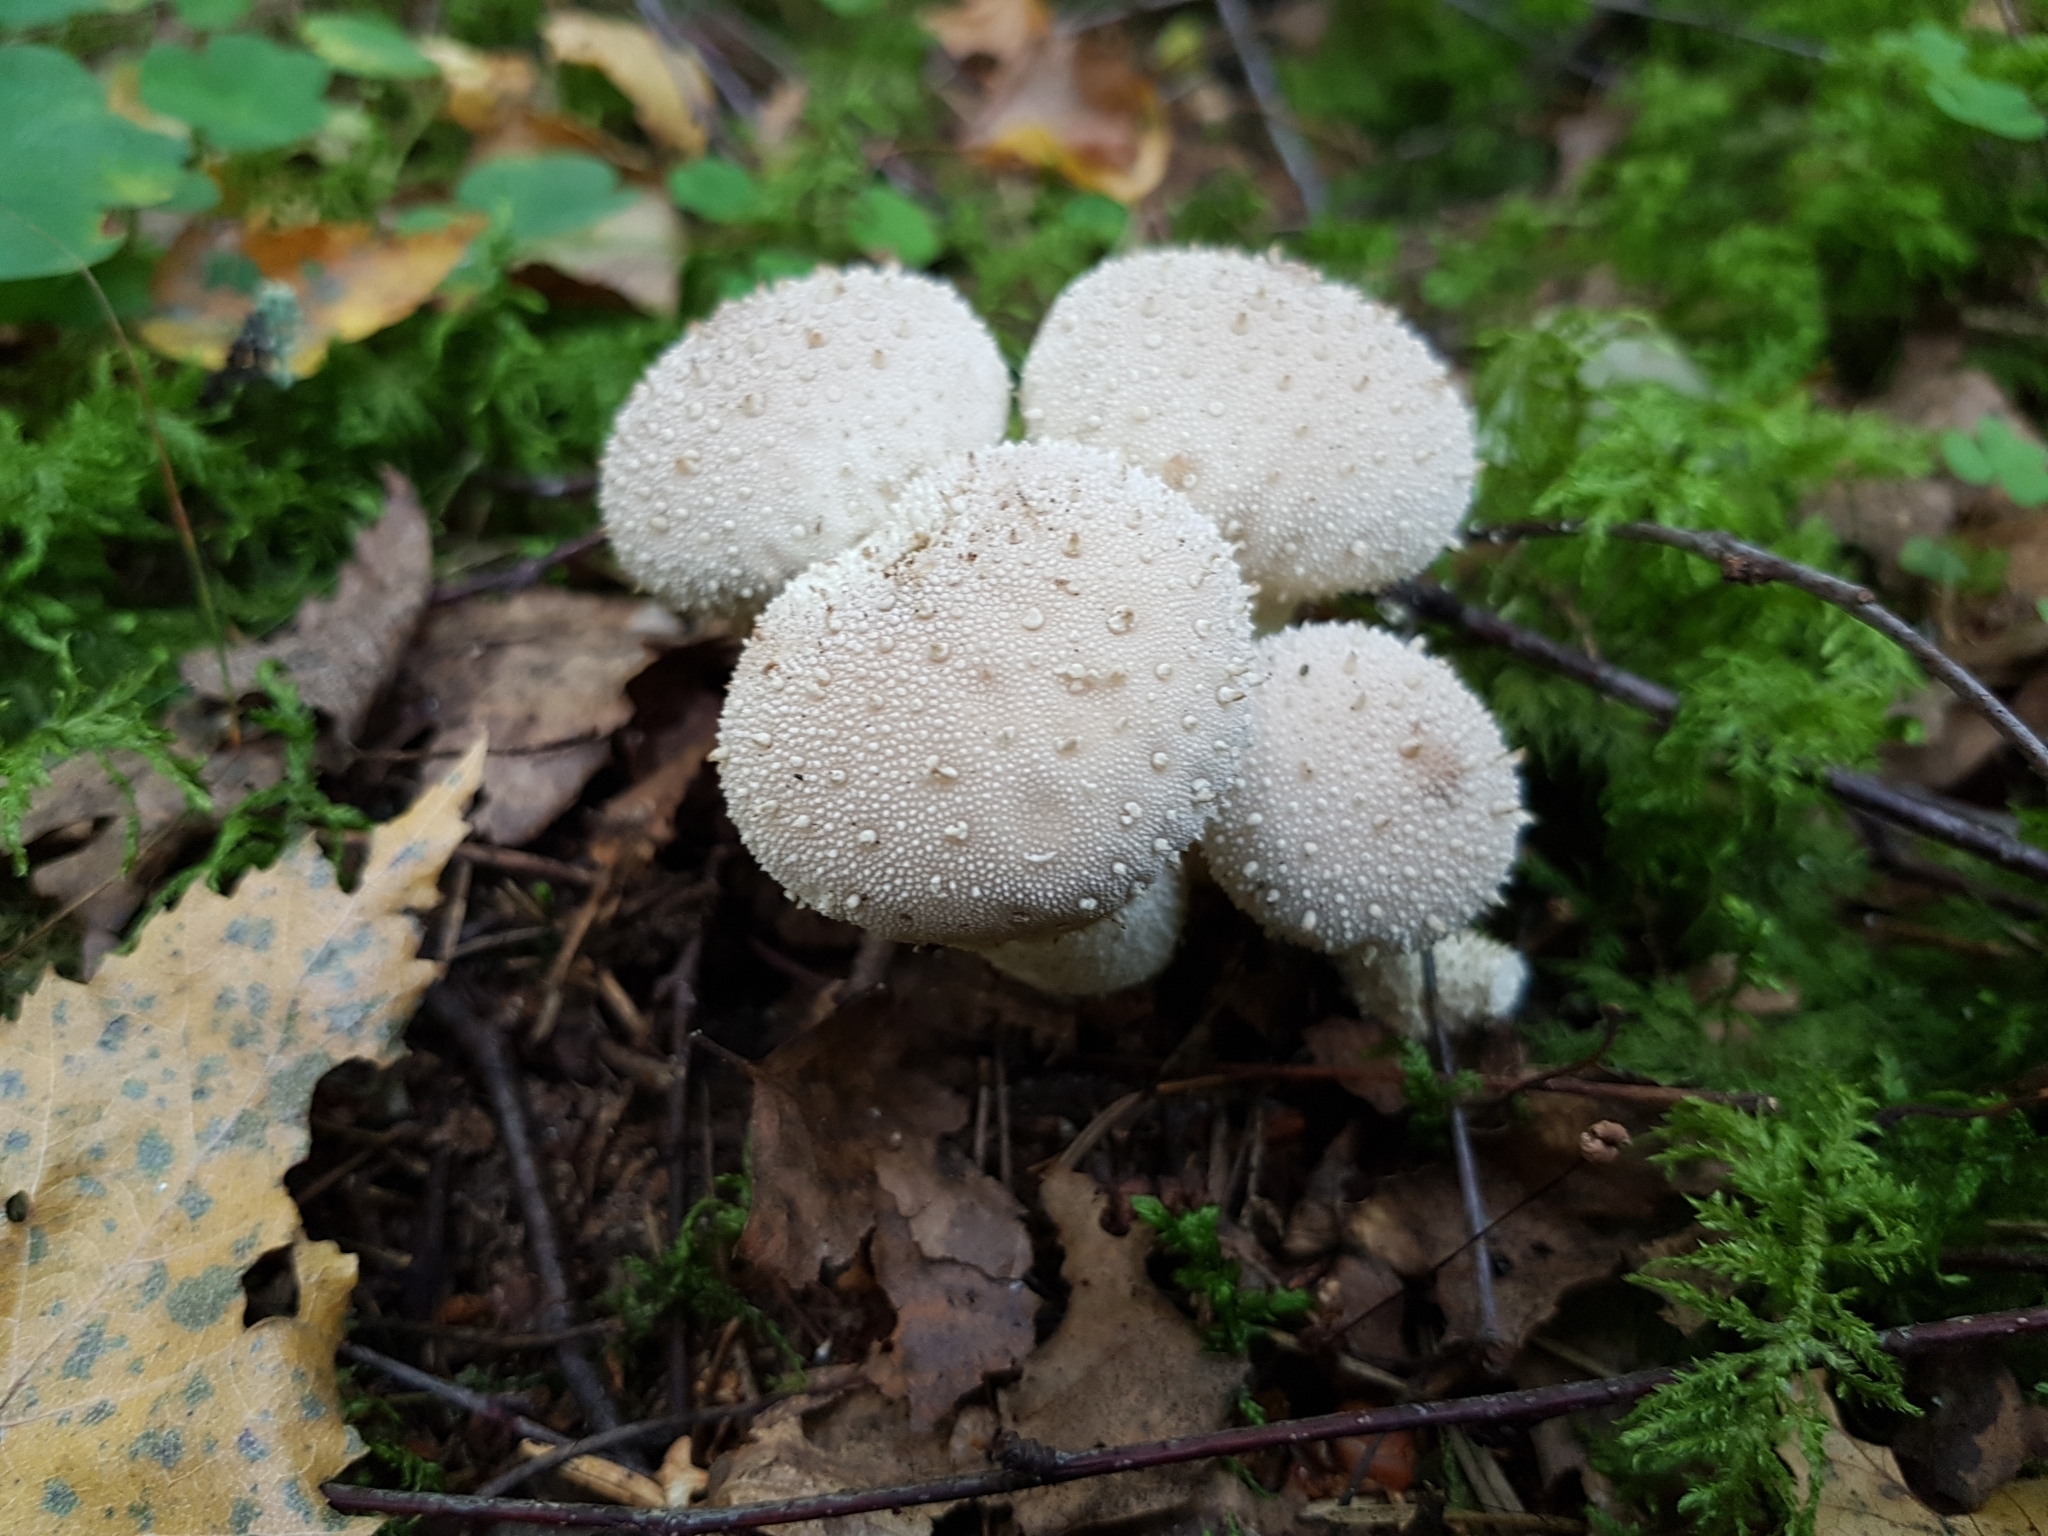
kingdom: Fungi
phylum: Basidiomycota
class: Agaricomycetes
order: Agaricales
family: Lycoperdaceae
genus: Lycoperdon
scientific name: Lycoperdon perlatum
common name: Common puffball
